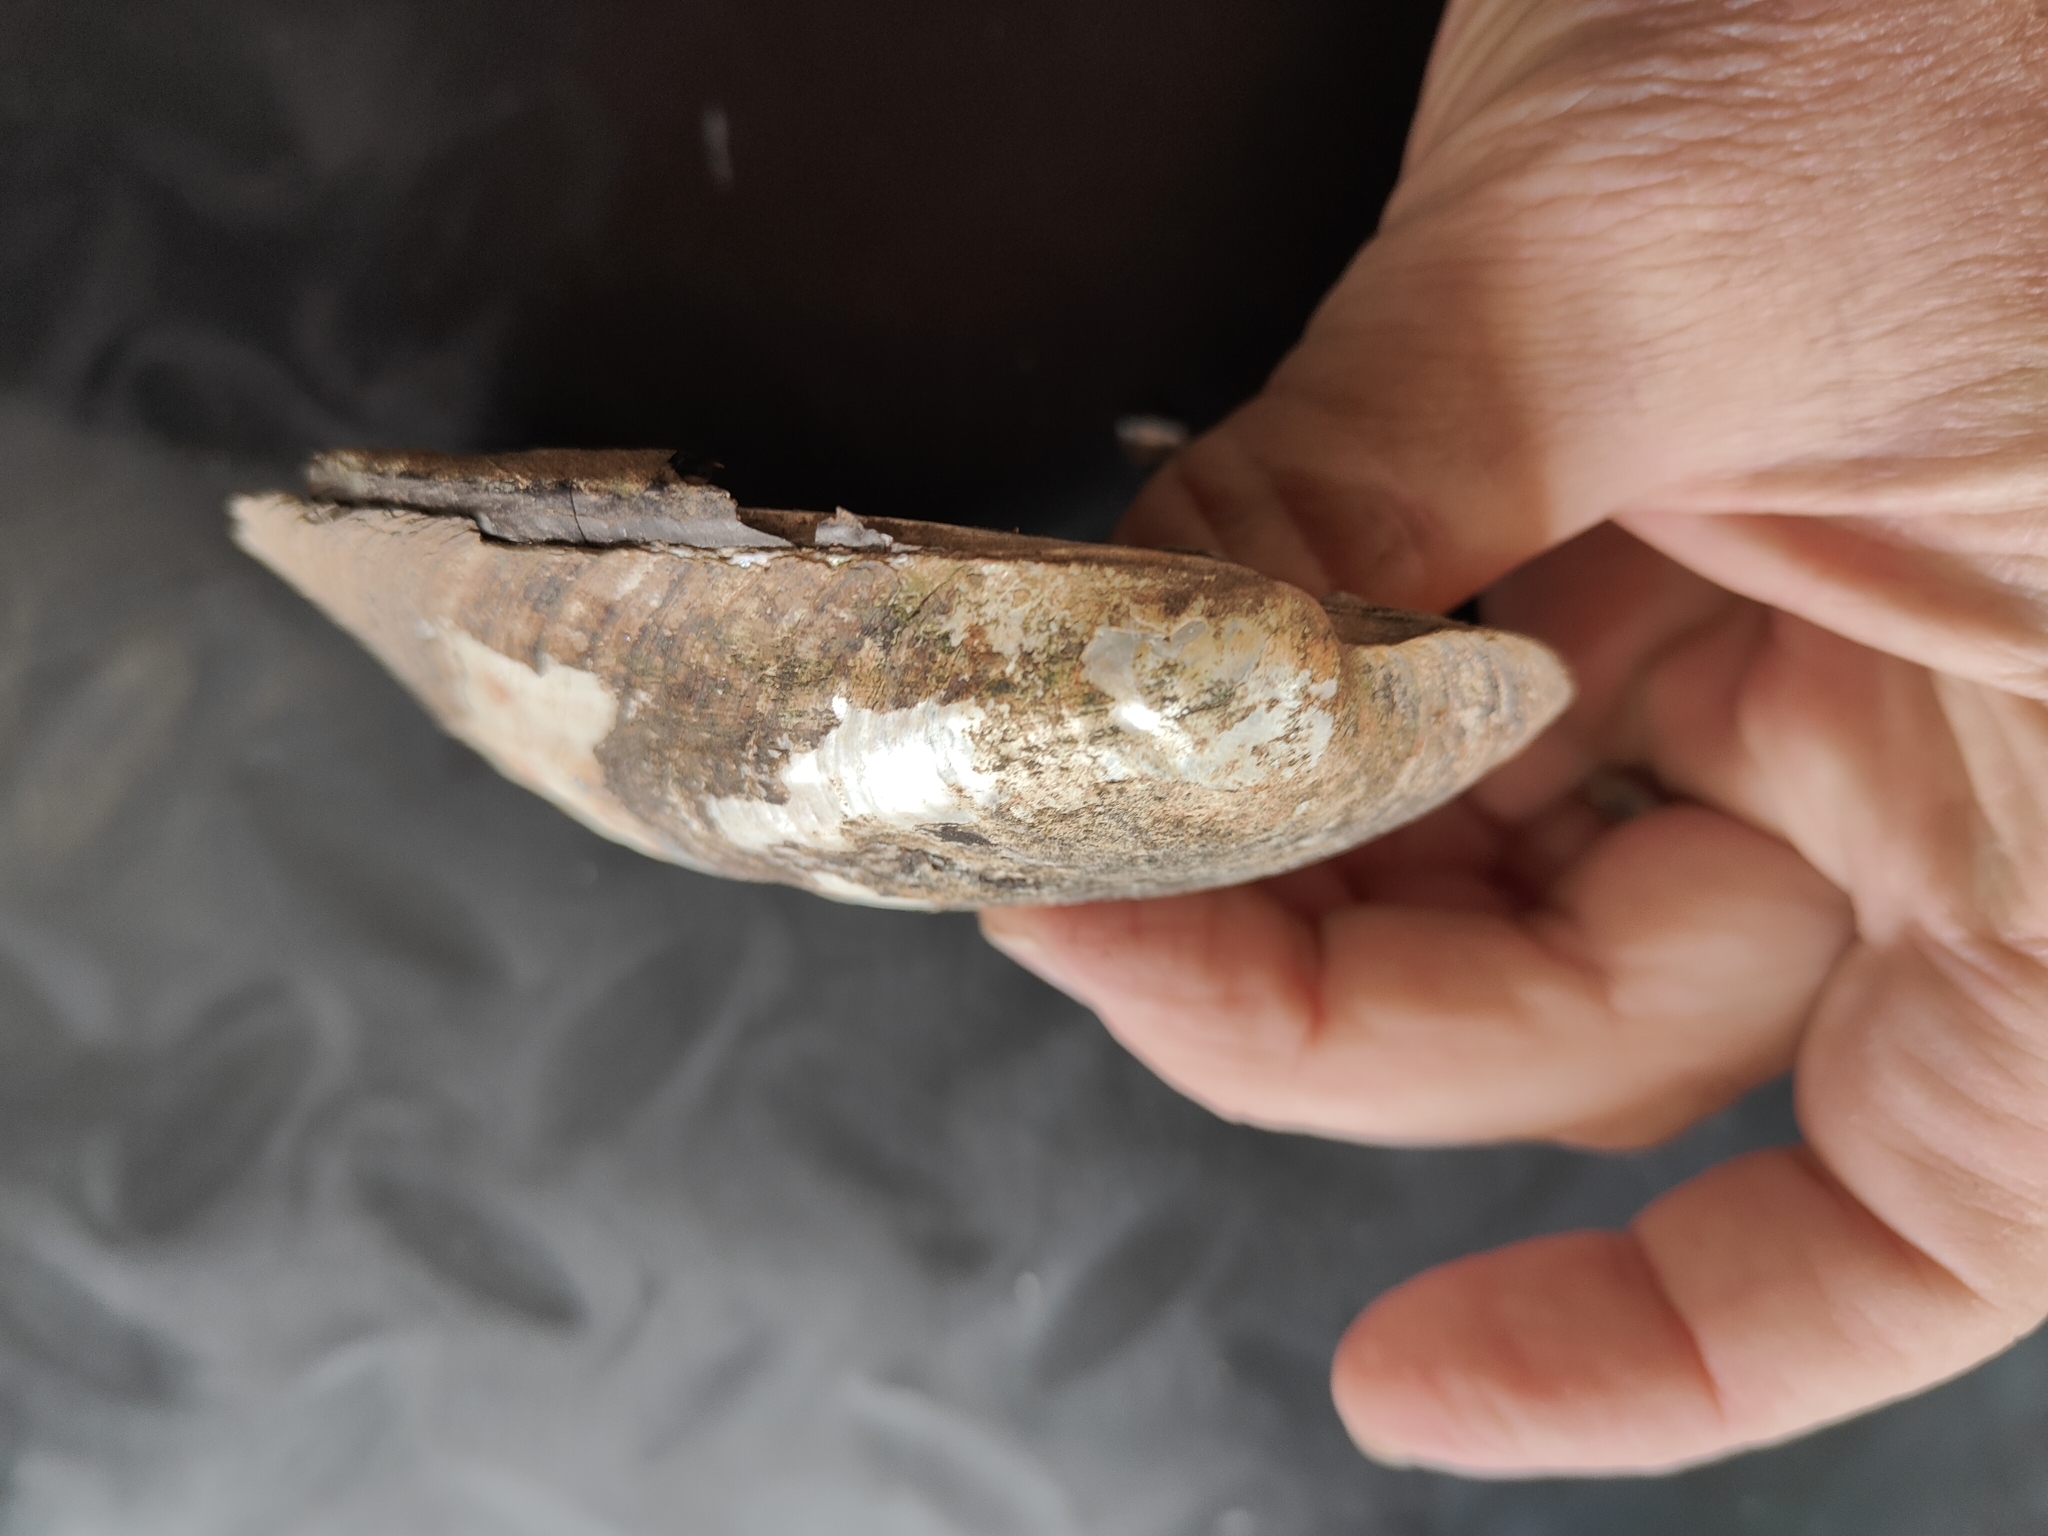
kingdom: Animalia
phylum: Mollusca
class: Bivalvia
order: Unionida
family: Unionidae
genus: Amblema
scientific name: Amblema plicata
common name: Threeridge
